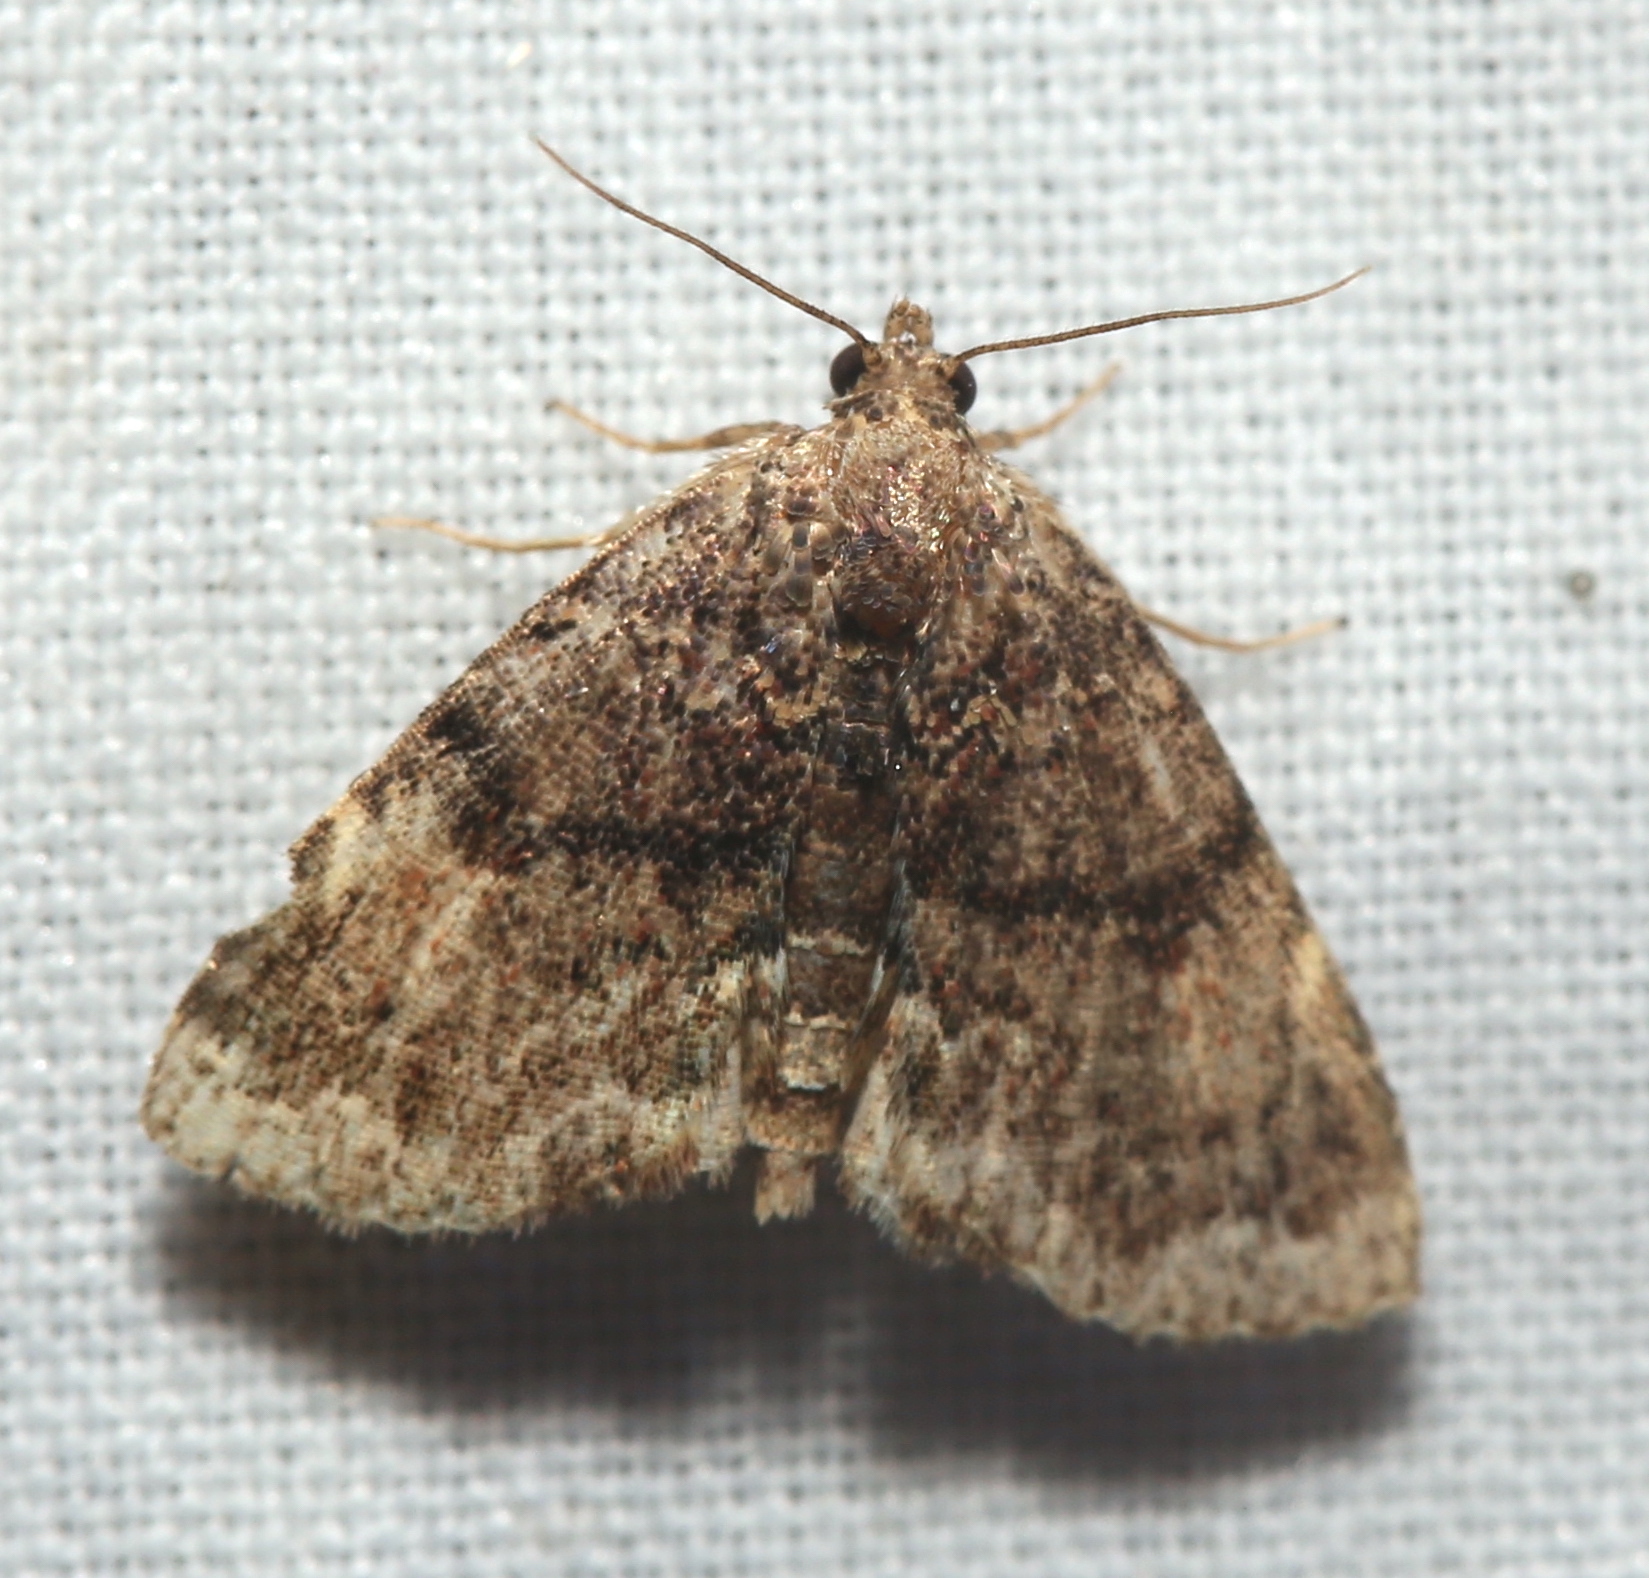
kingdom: Animalia
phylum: Arthropoda
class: Insecta
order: Lepidoptera
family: Erebidae
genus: Metalectra
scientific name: Metalectra richardsi
